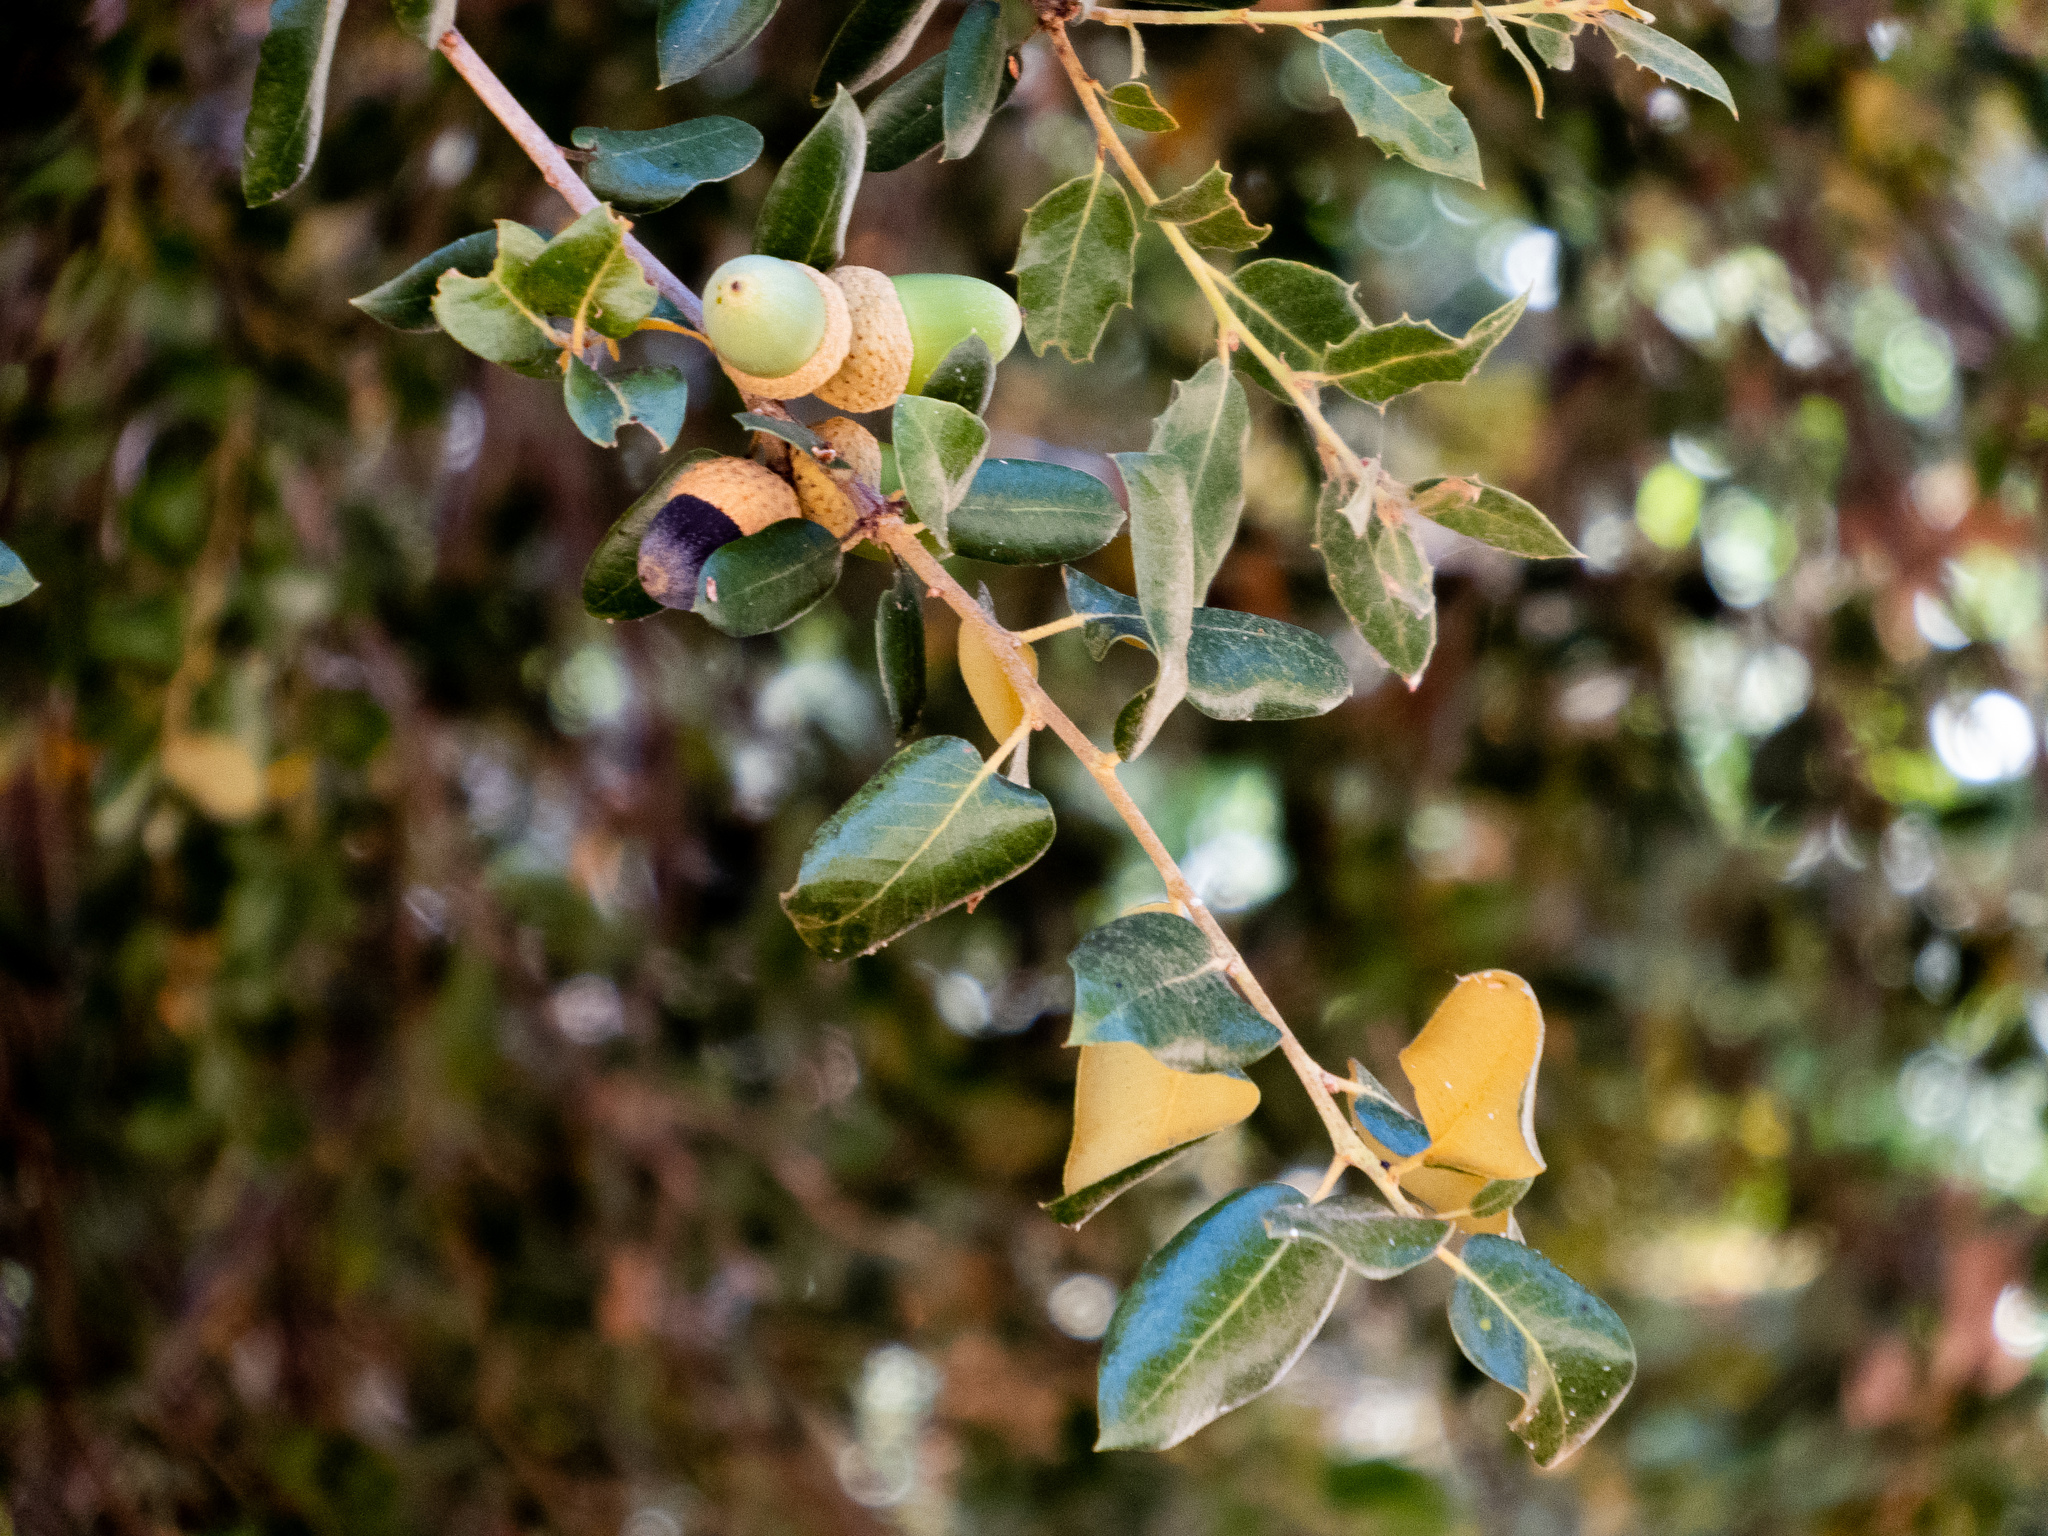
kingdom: Plantae
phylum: Tracheophyta
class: Magnoliopsida
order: Fagales
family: Fagaceae
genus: Quercus
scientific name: Quercus chrysolepis
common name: Canyon live oak
